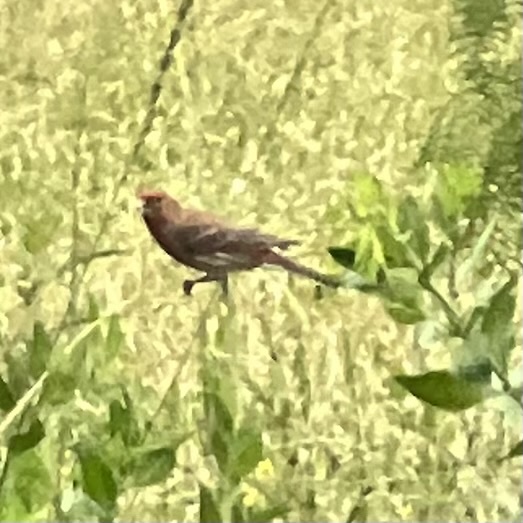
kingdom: Animalia
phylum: Chordata
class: Aves
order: Passeriformes
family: Fringillidae
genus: Haemorhous
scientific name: Haemorhous mexicanus
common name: House finch
